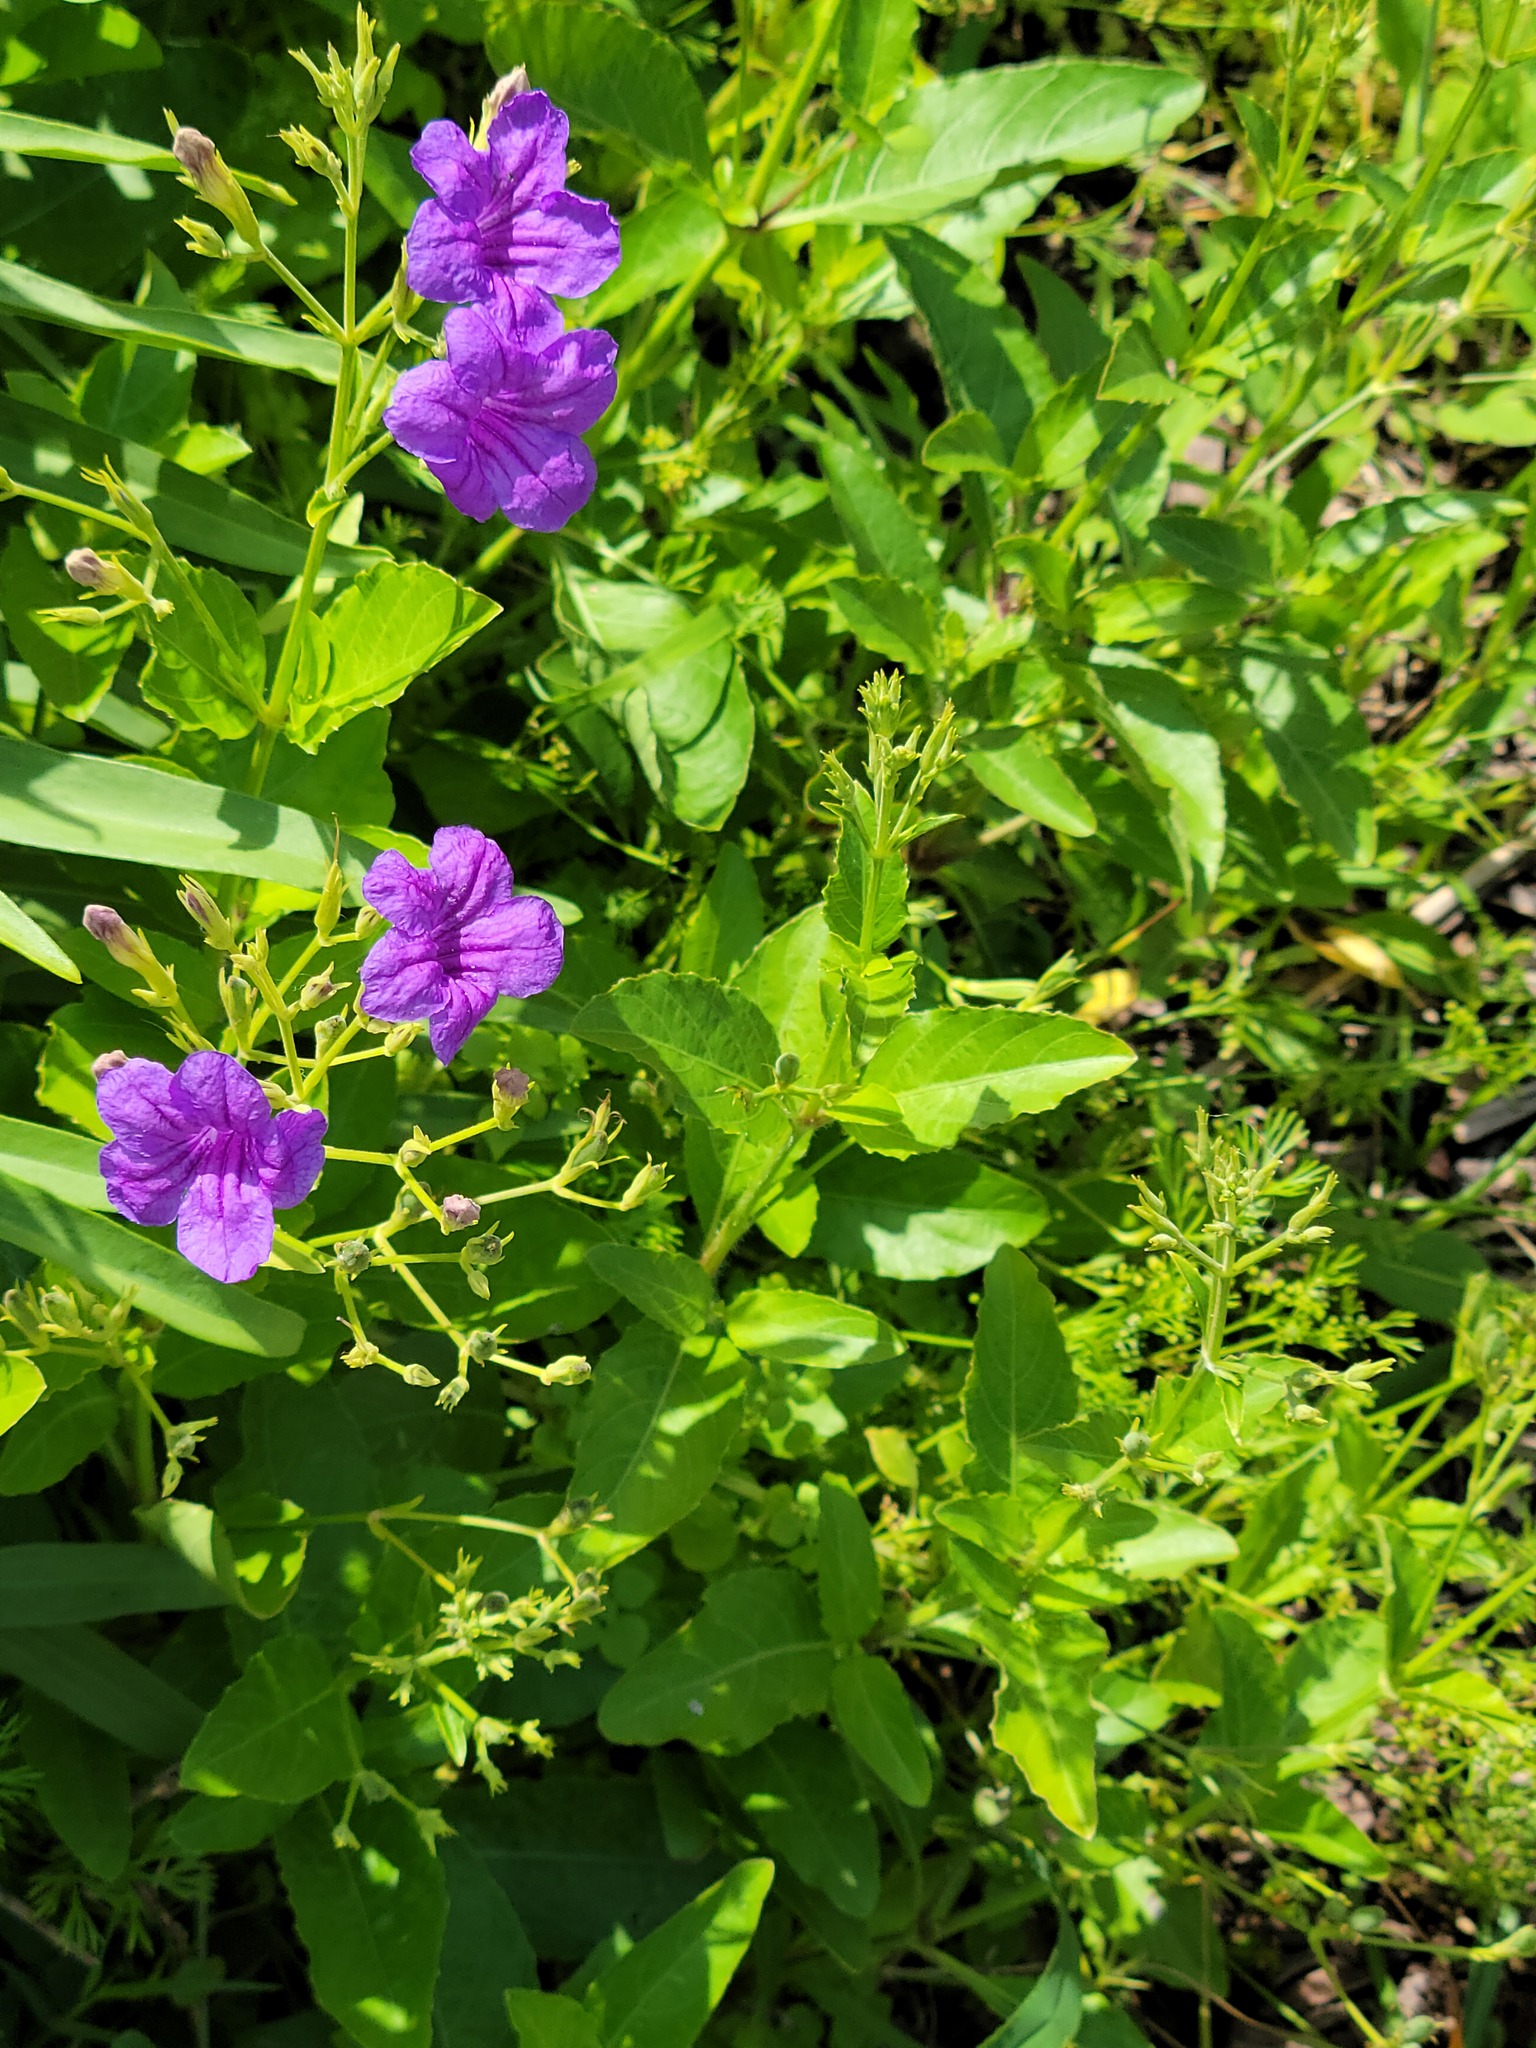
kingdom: Plantae
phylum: Tracheophyta
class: Magnoliopsida
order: Lamiales
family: Acanthaceae
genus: Ruellia
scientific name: Ruellia ciliatiflora
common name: Hairyflower wild petunia
